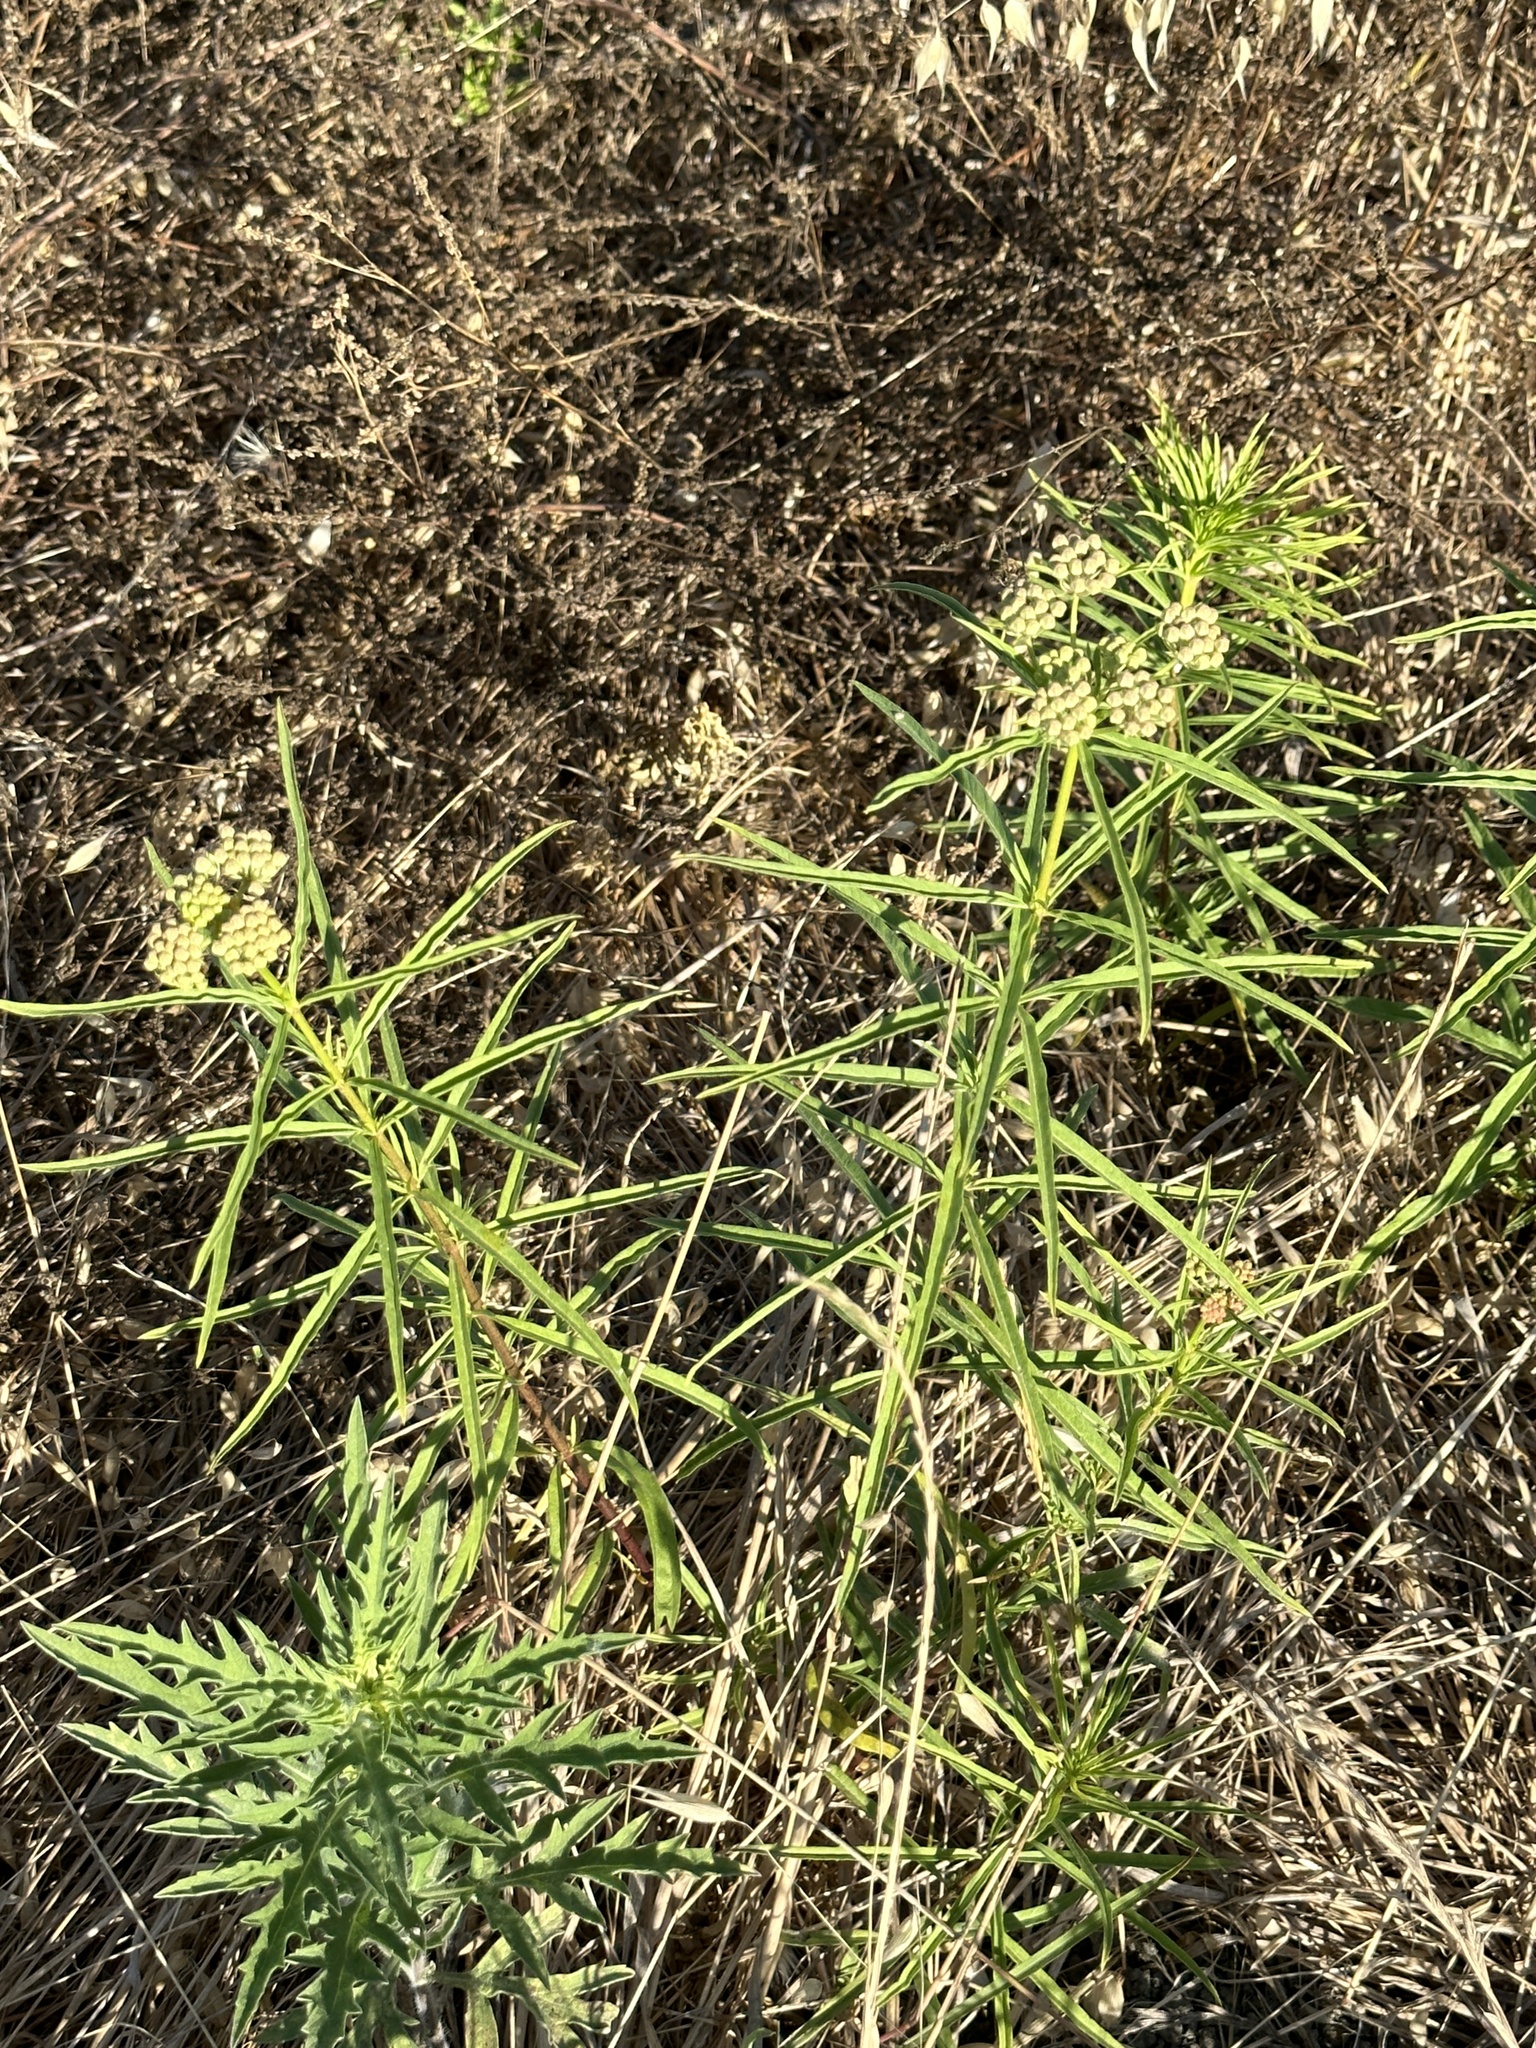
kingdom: Plantae
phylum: Tracheophyta
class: Magnoliopsida
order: Gentianales
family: Apocynaceae
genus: Asclepias
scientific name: Asclepias fascicularis
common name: Mexican milkweed
